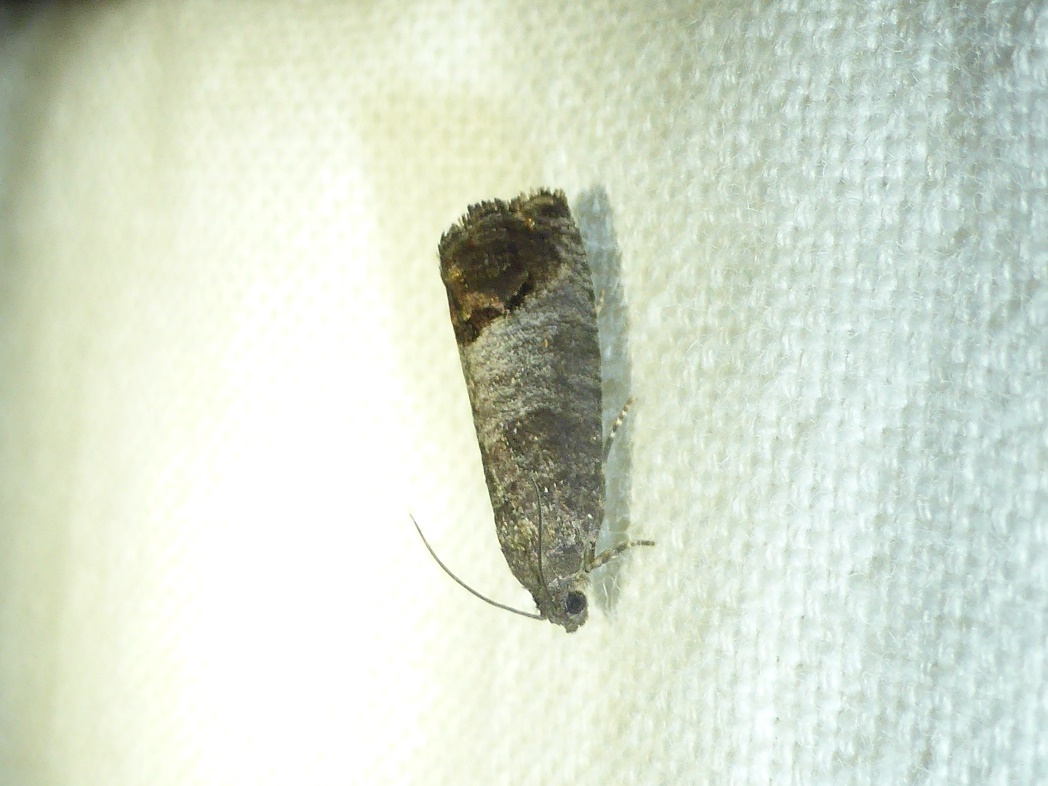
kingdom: Animalia
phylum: Arthropoda
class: Insecta
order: Lepidoptera
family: Tortricidae
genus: Cydia
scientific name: Cydia pomonella
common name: Codling moth
